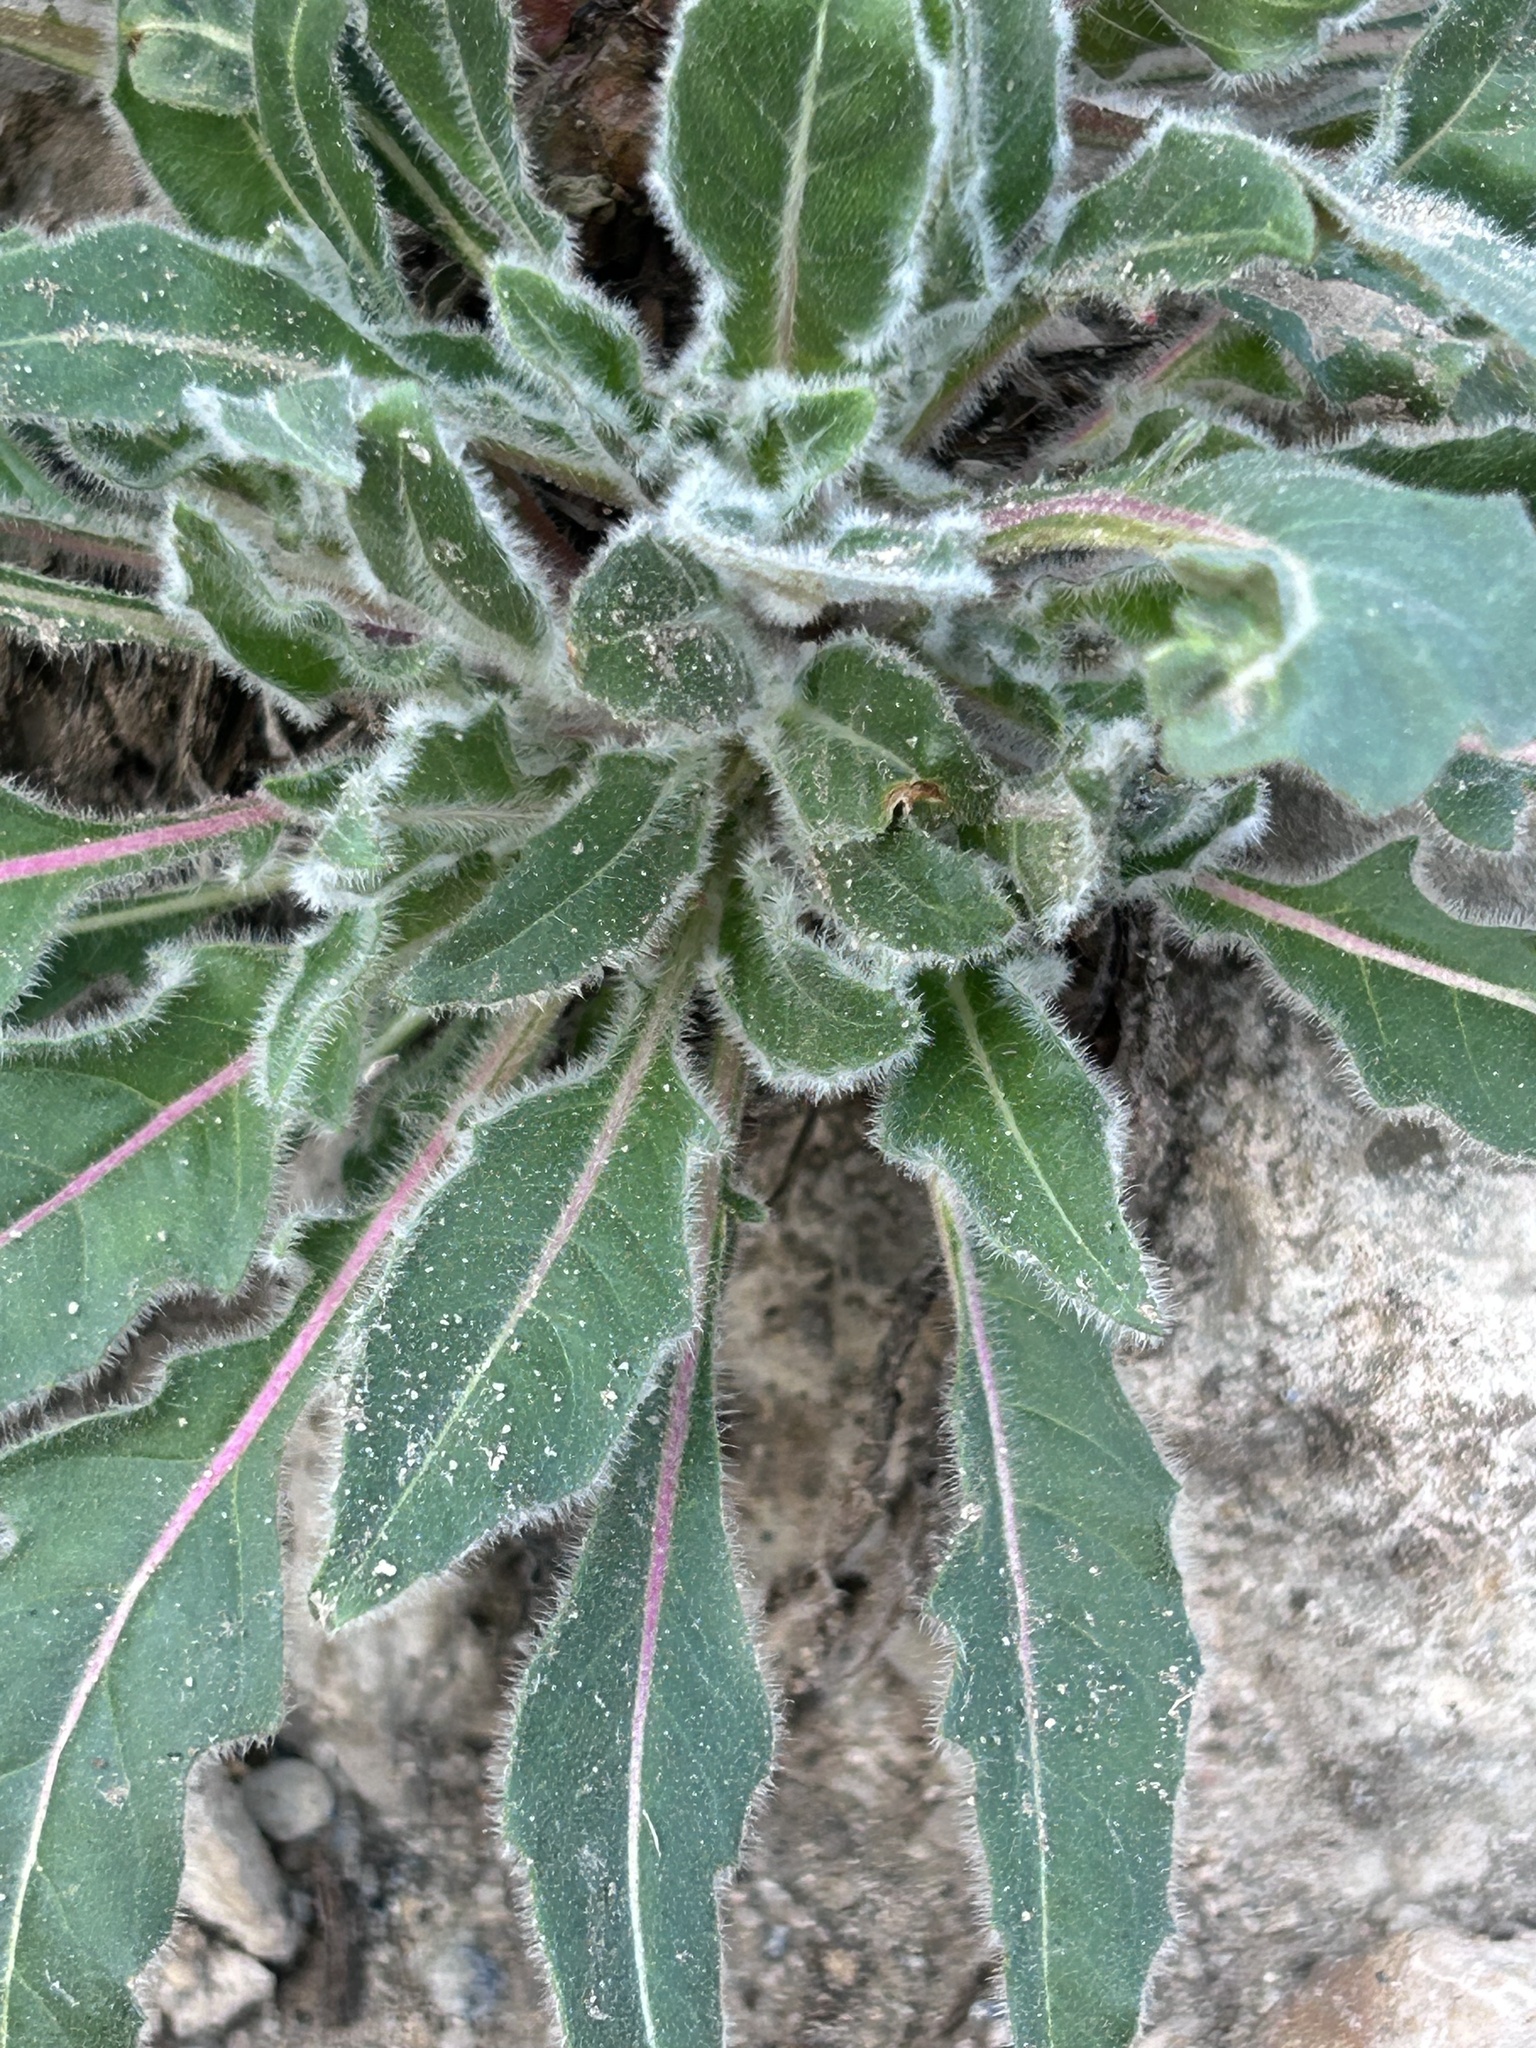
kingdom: Plantae
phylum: Tracheophyta
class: Magnoliopsida
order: Myrtales
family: Onagraceae
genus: Oenothera
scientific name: Oenothera cespitosa
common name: Tufted evening-primrose
